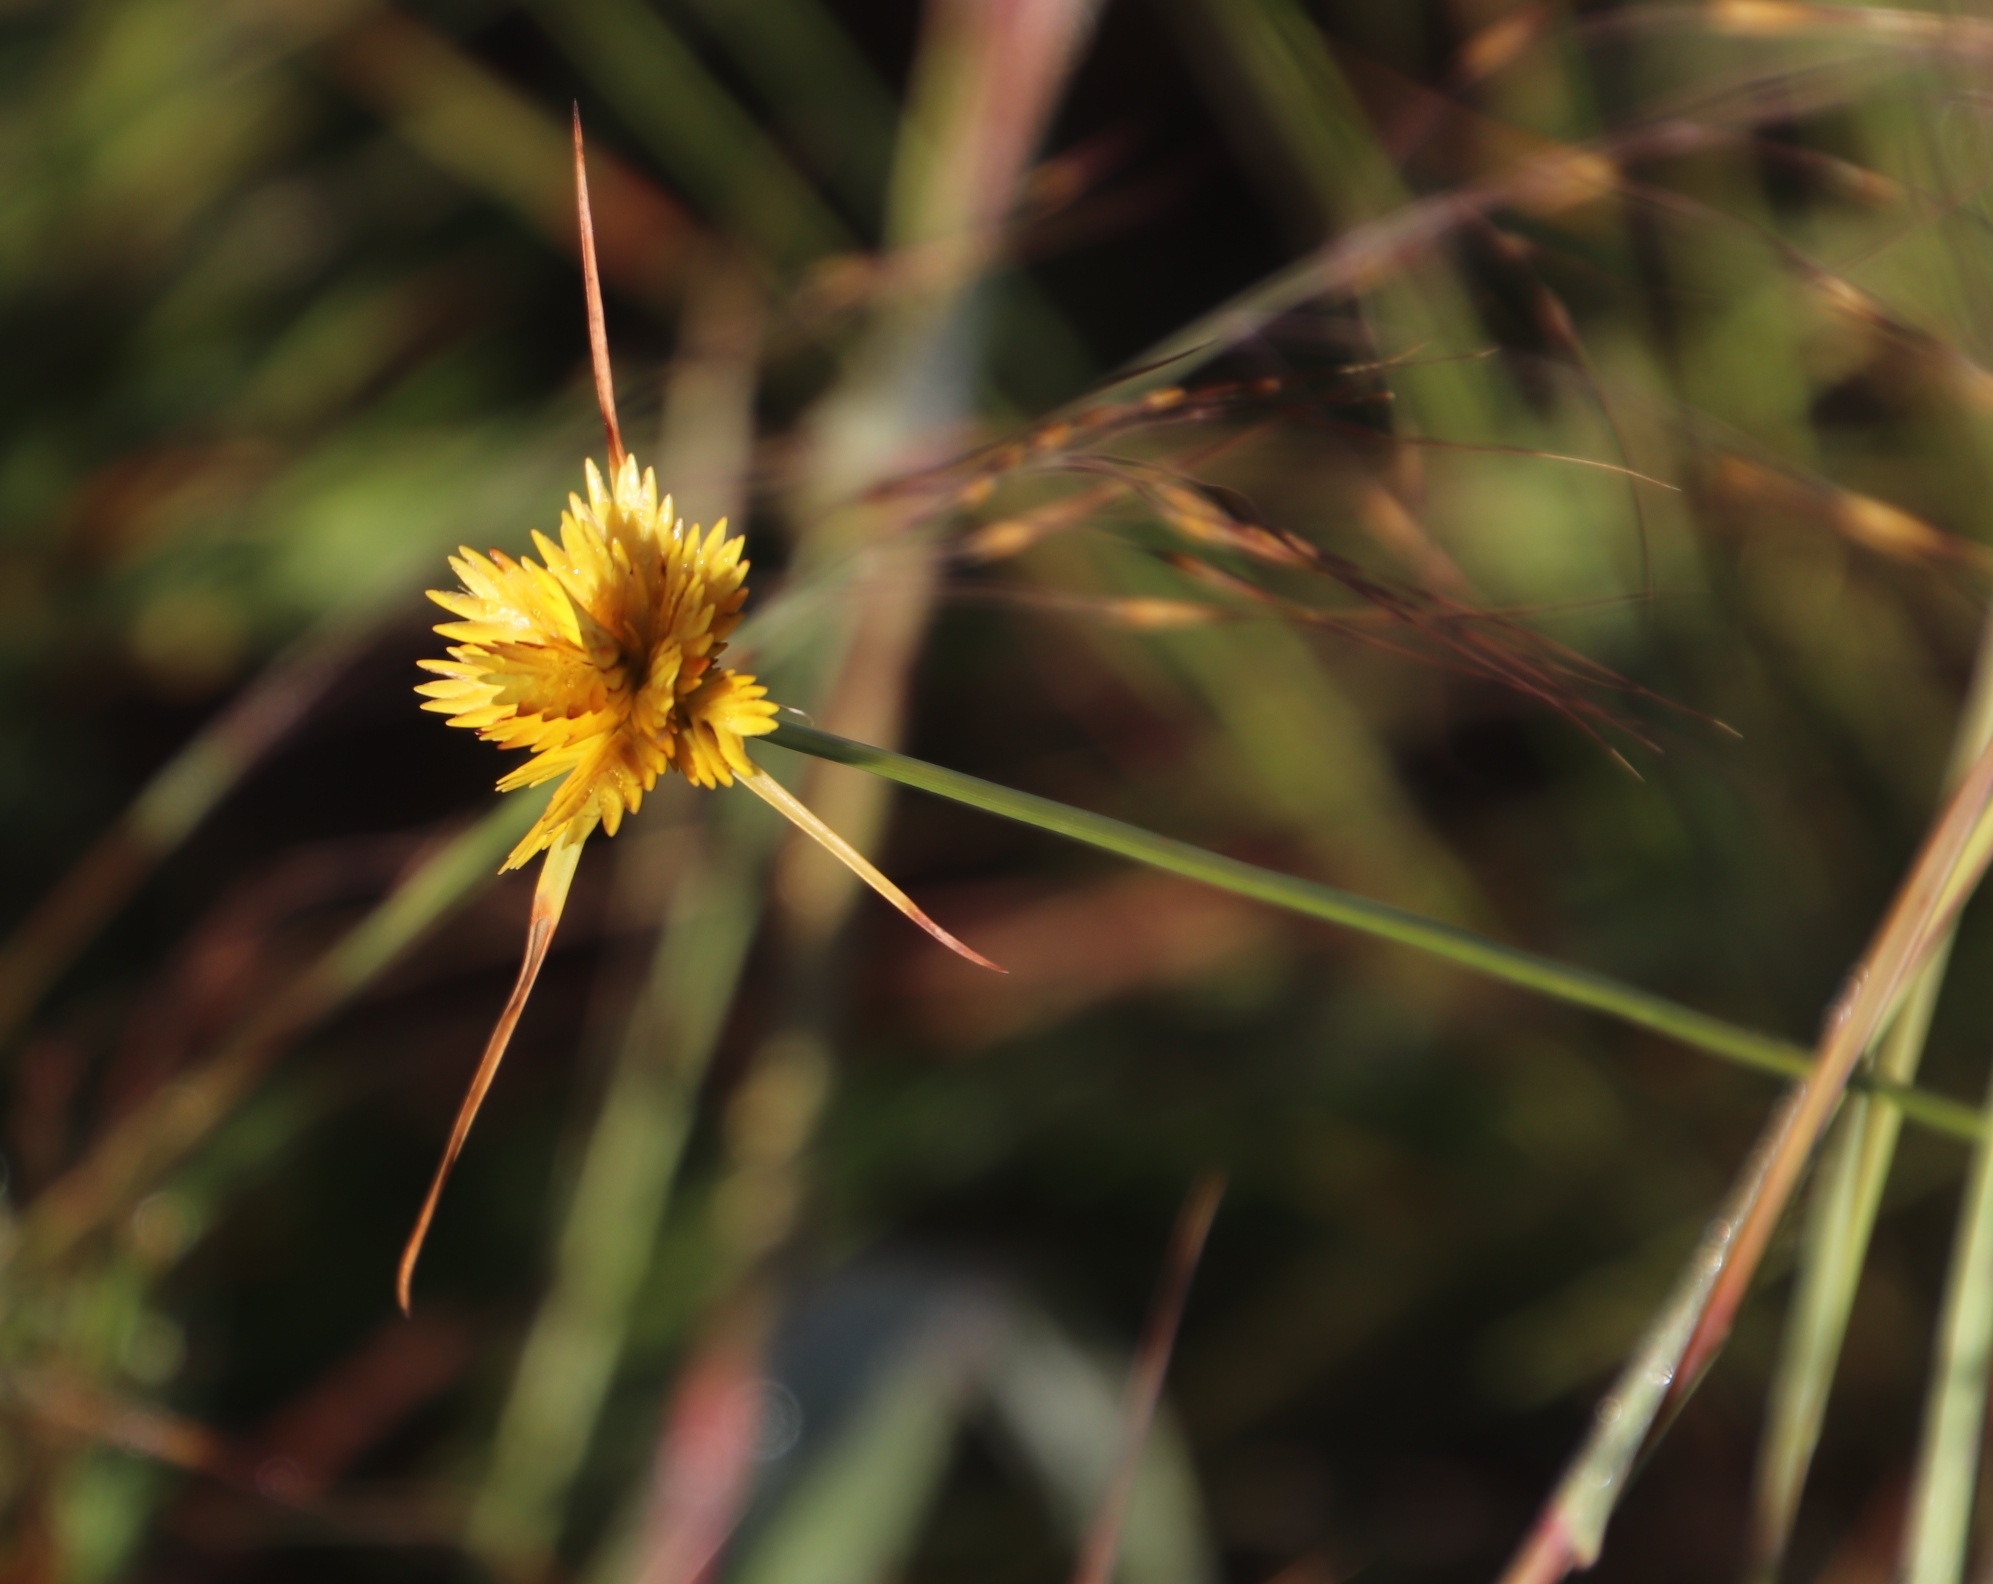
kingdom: Plantae
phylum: Tracheophyta
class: Liliopsida
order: Poales
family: Cyperaceae
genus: Cyperus
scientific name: Cyperus sphaerocephalus
